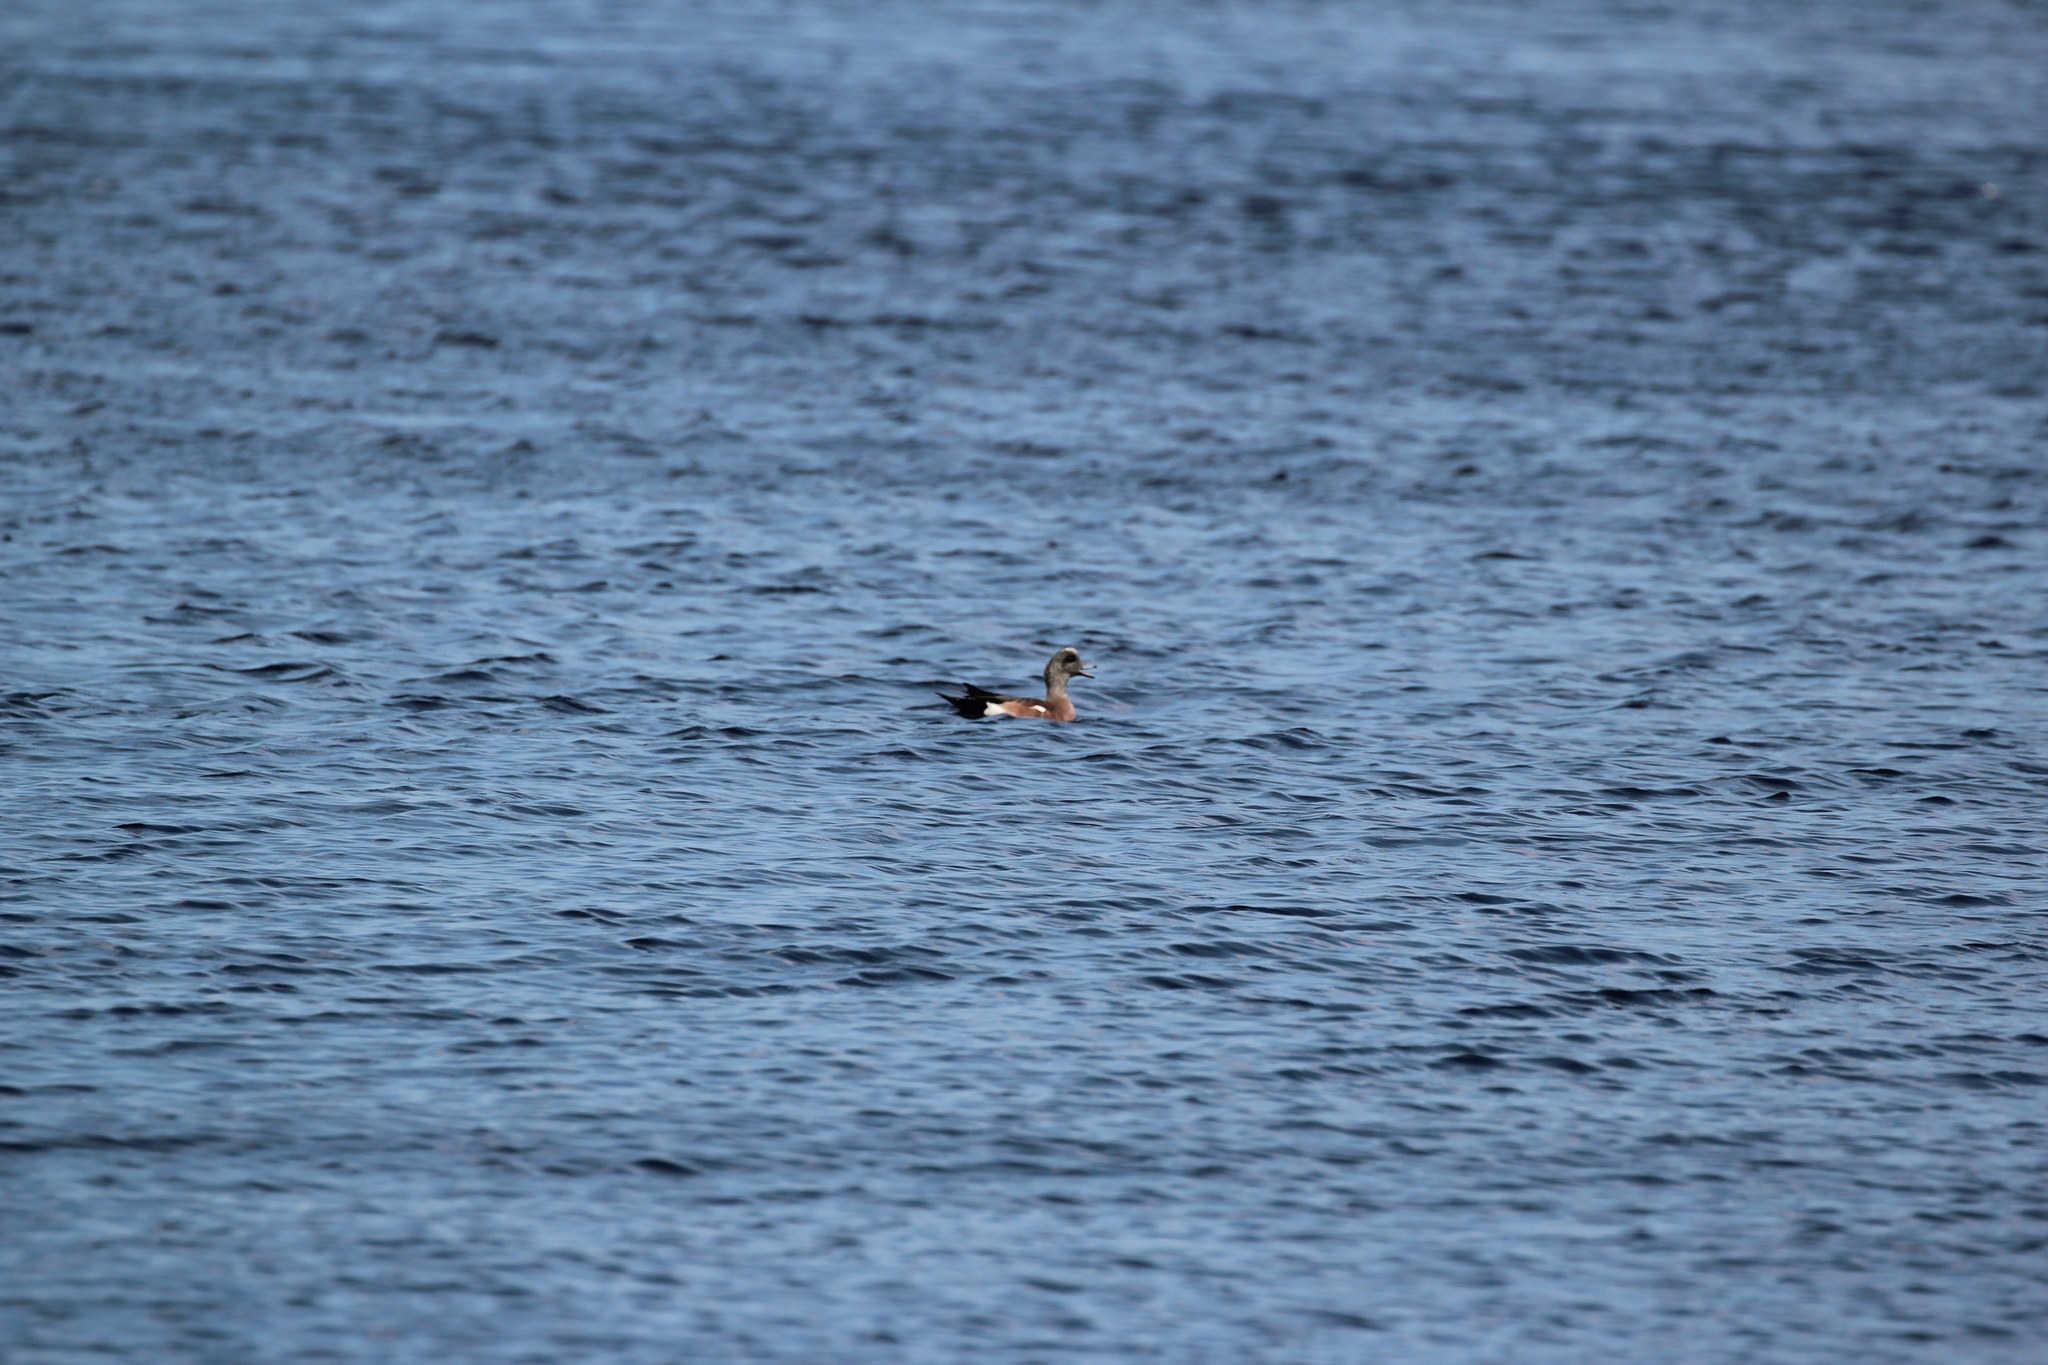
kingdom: Animalia
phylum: Chordata
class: Aves
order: Anseriformes
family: Anatidae
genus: Mareca
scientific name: Mareca americana
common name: American wigeon
